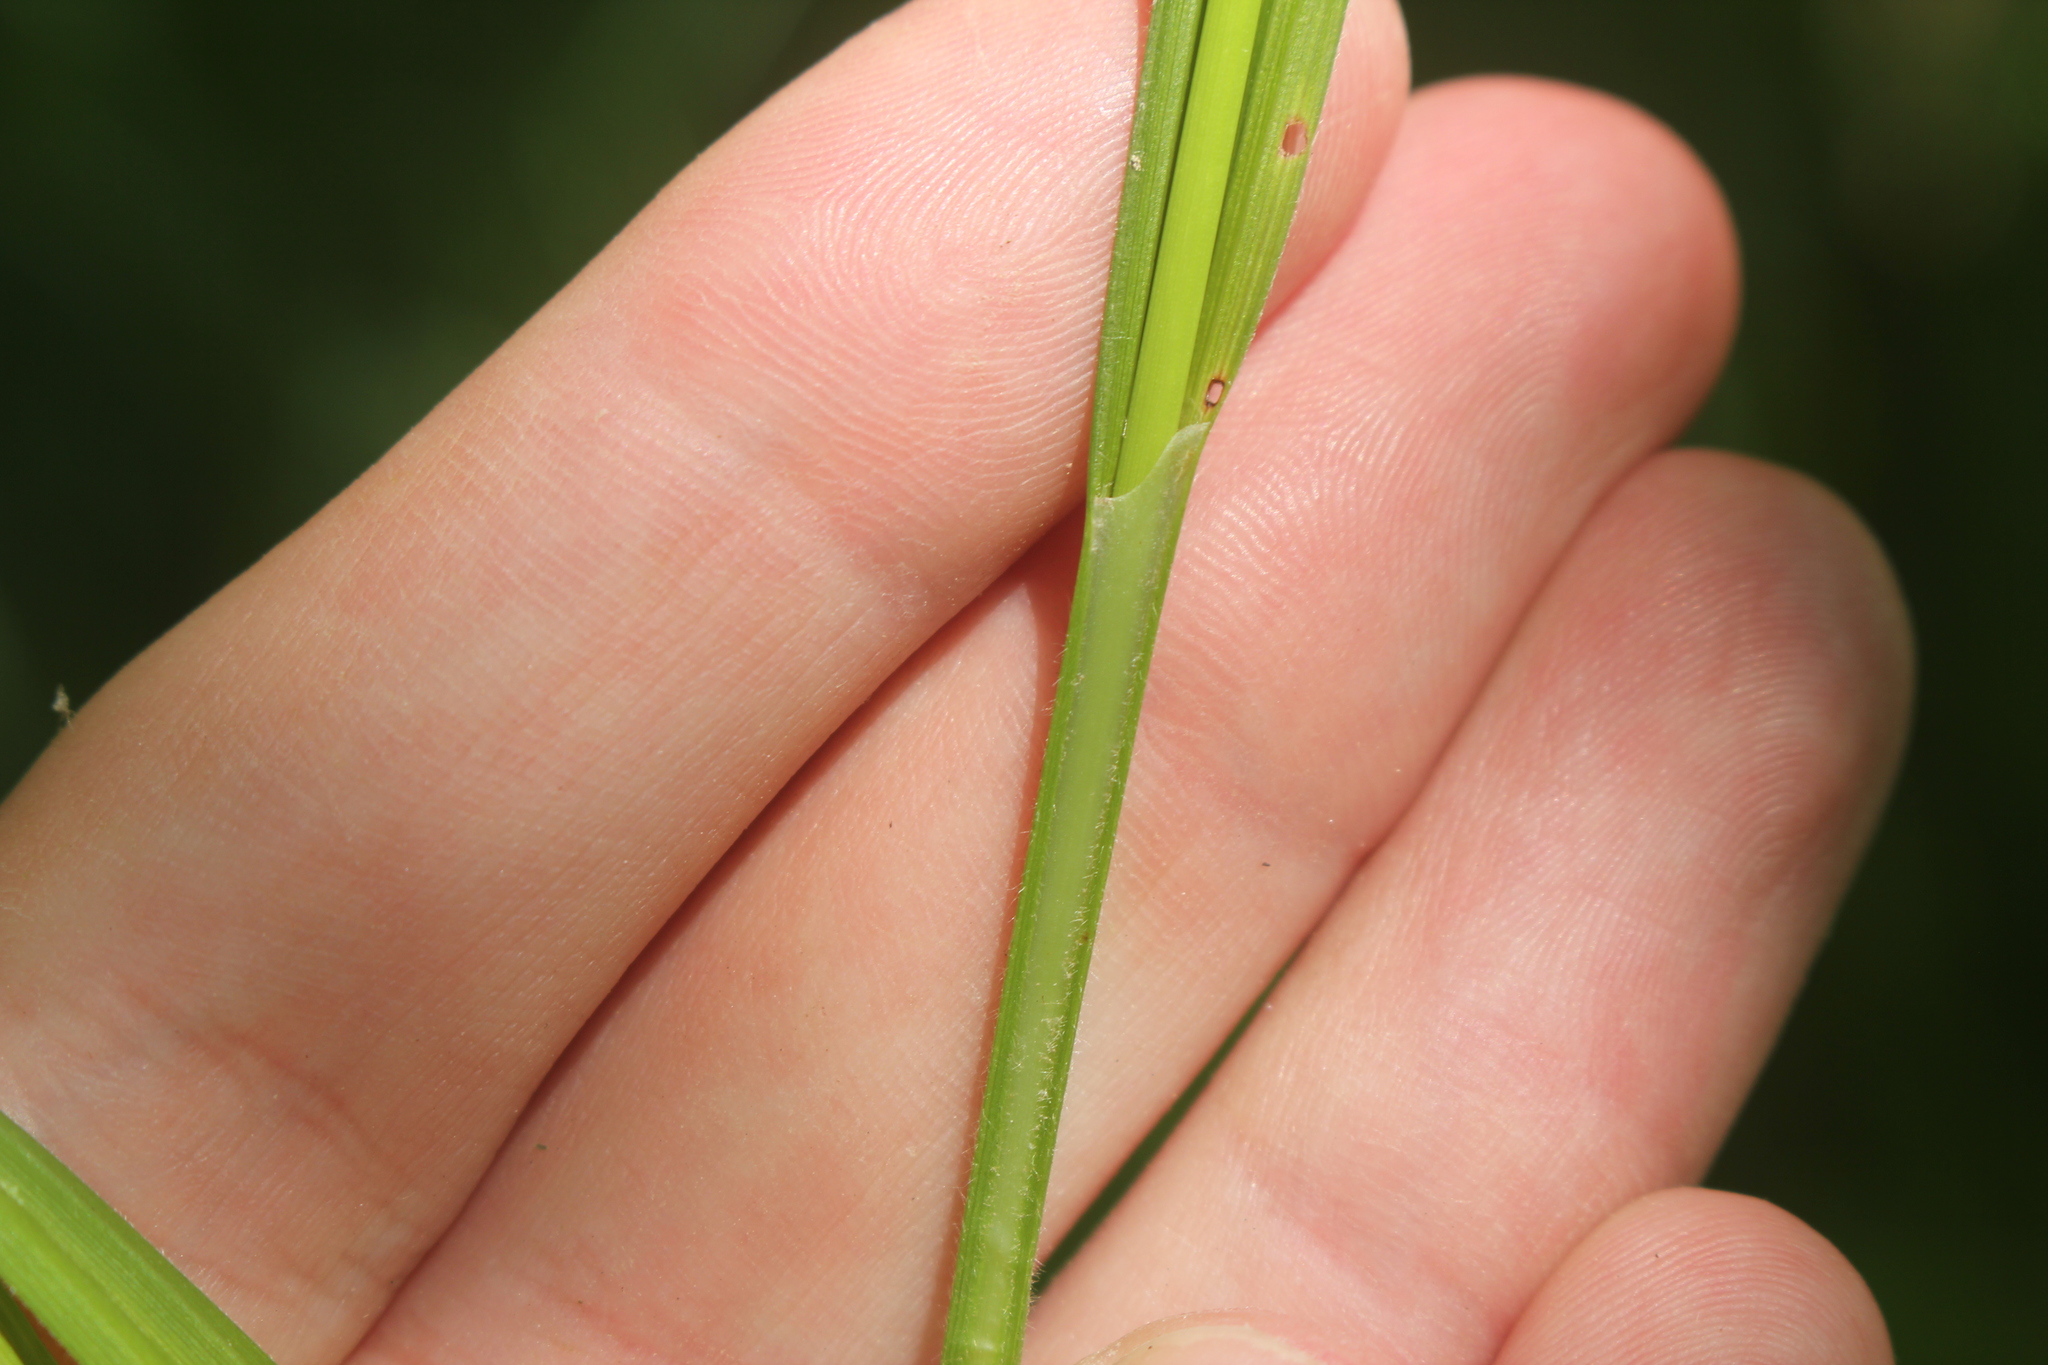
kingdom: Plantae
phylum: Tracheophyta
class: Liliopsida
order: Poales
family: Cyperaceae
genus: Carex
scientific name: Carex formosa
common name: Awnless graceful sedge
